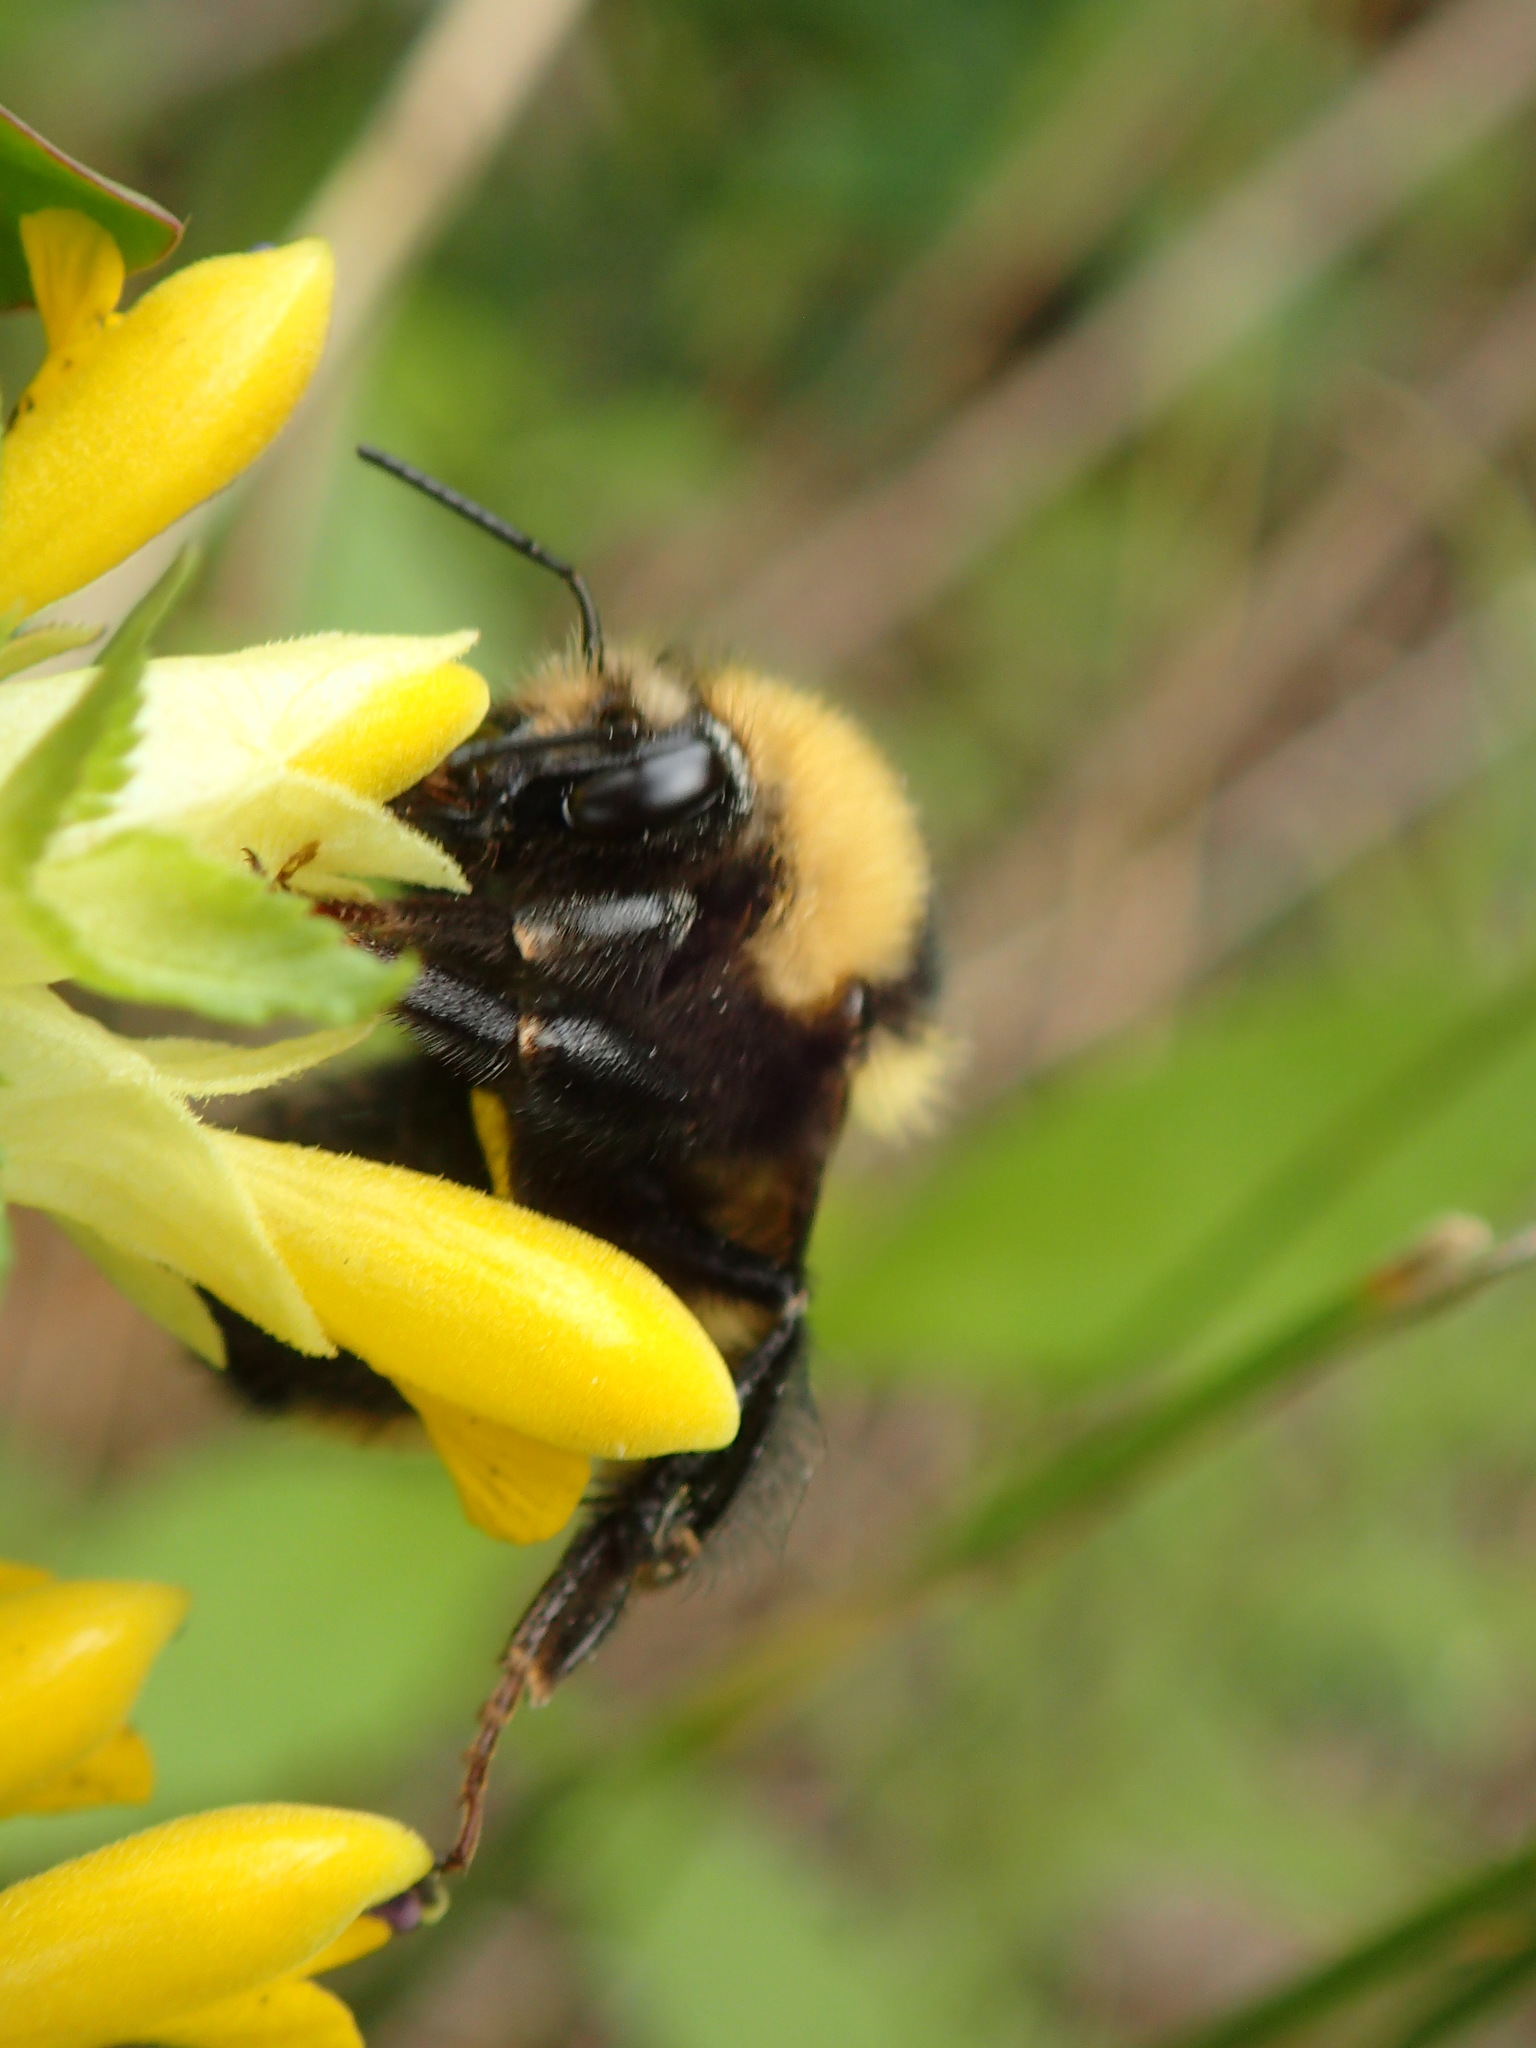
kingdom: Animalia
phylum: Arthropoda
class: Insecta
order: Hymenoptera
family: Apidae
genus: Bombus
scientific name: Bombus borealis
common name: Northern amber bumble bee
